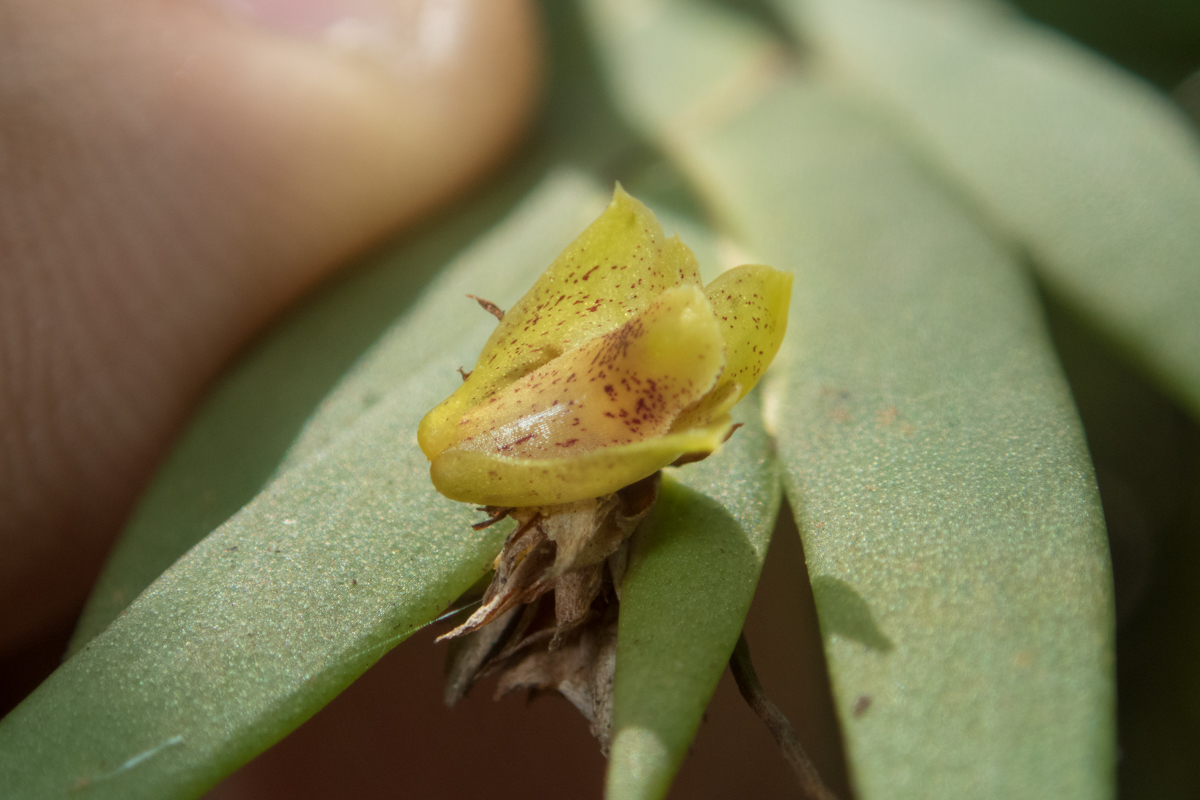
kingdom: Plantae
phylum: Tracheophyta
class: Liliopsida
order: Asparagales
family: Orchidaceae
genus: Oxystophyllum
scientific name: Oxystophyllum carnosum
